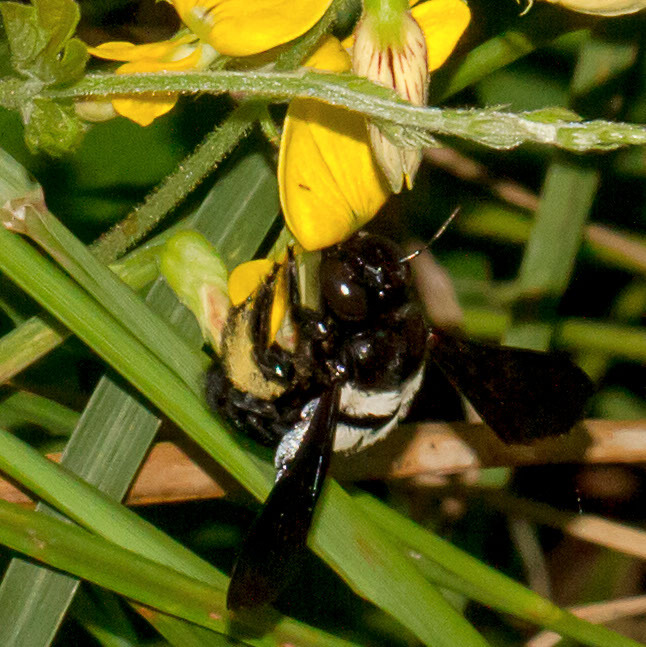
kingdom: Animalia
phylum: Arthropoda
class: Insecta
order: Hymenoptera
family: Apidae
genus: Xylocopa
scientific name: Xylocopa caffra
